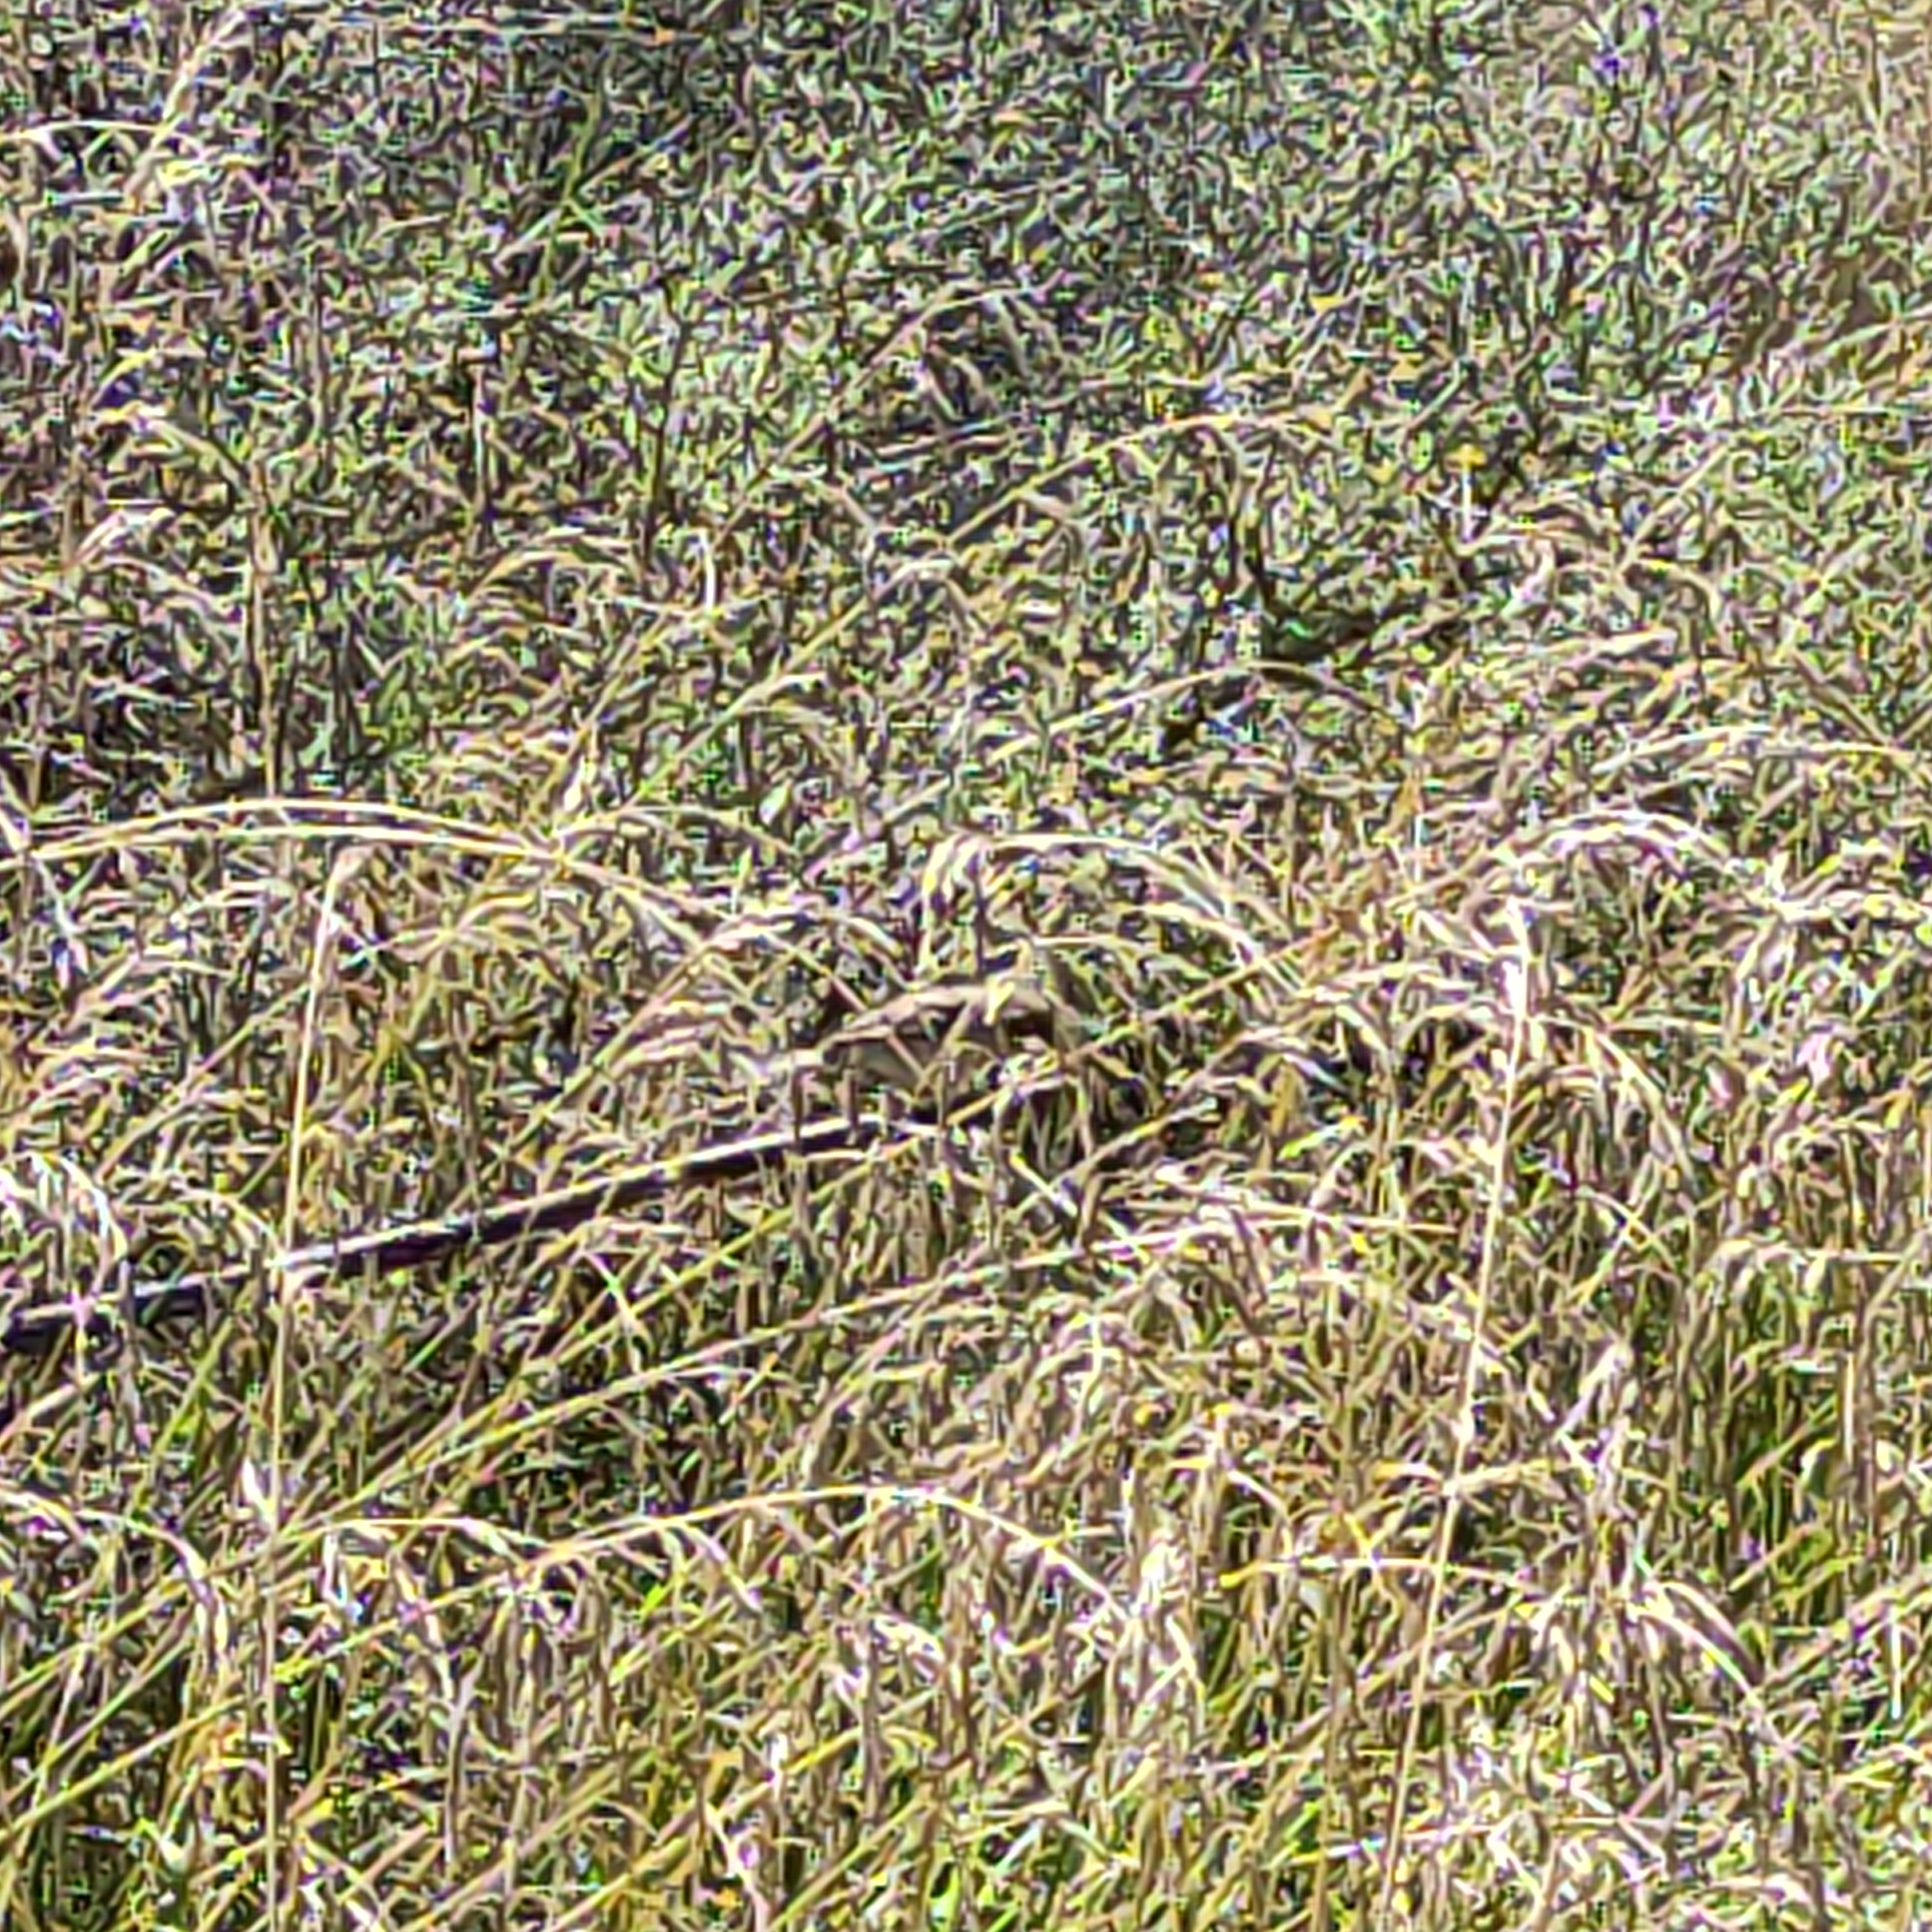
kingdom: Animalia
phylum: Chordata
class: Aves
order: Passeriformes
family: Passeridae
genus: Passer
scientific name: Passer domesticus
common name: House sparrow
